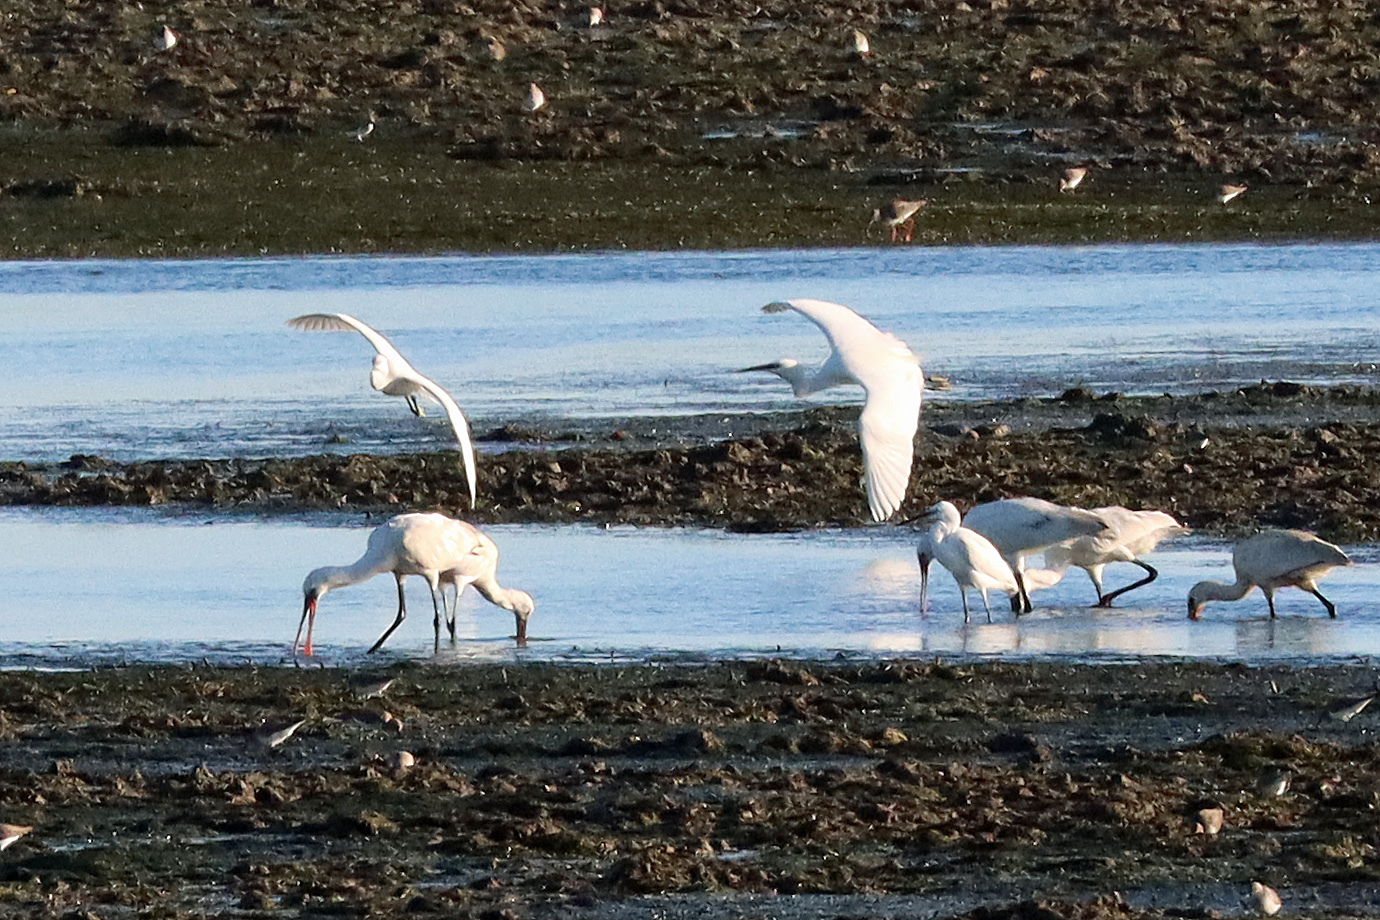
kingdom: Animalia
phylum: Chordata
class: Aves
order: Pelecaniformes
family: Ardeidae
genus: Egretta
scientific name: Egretta garzetta
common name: Little egret
